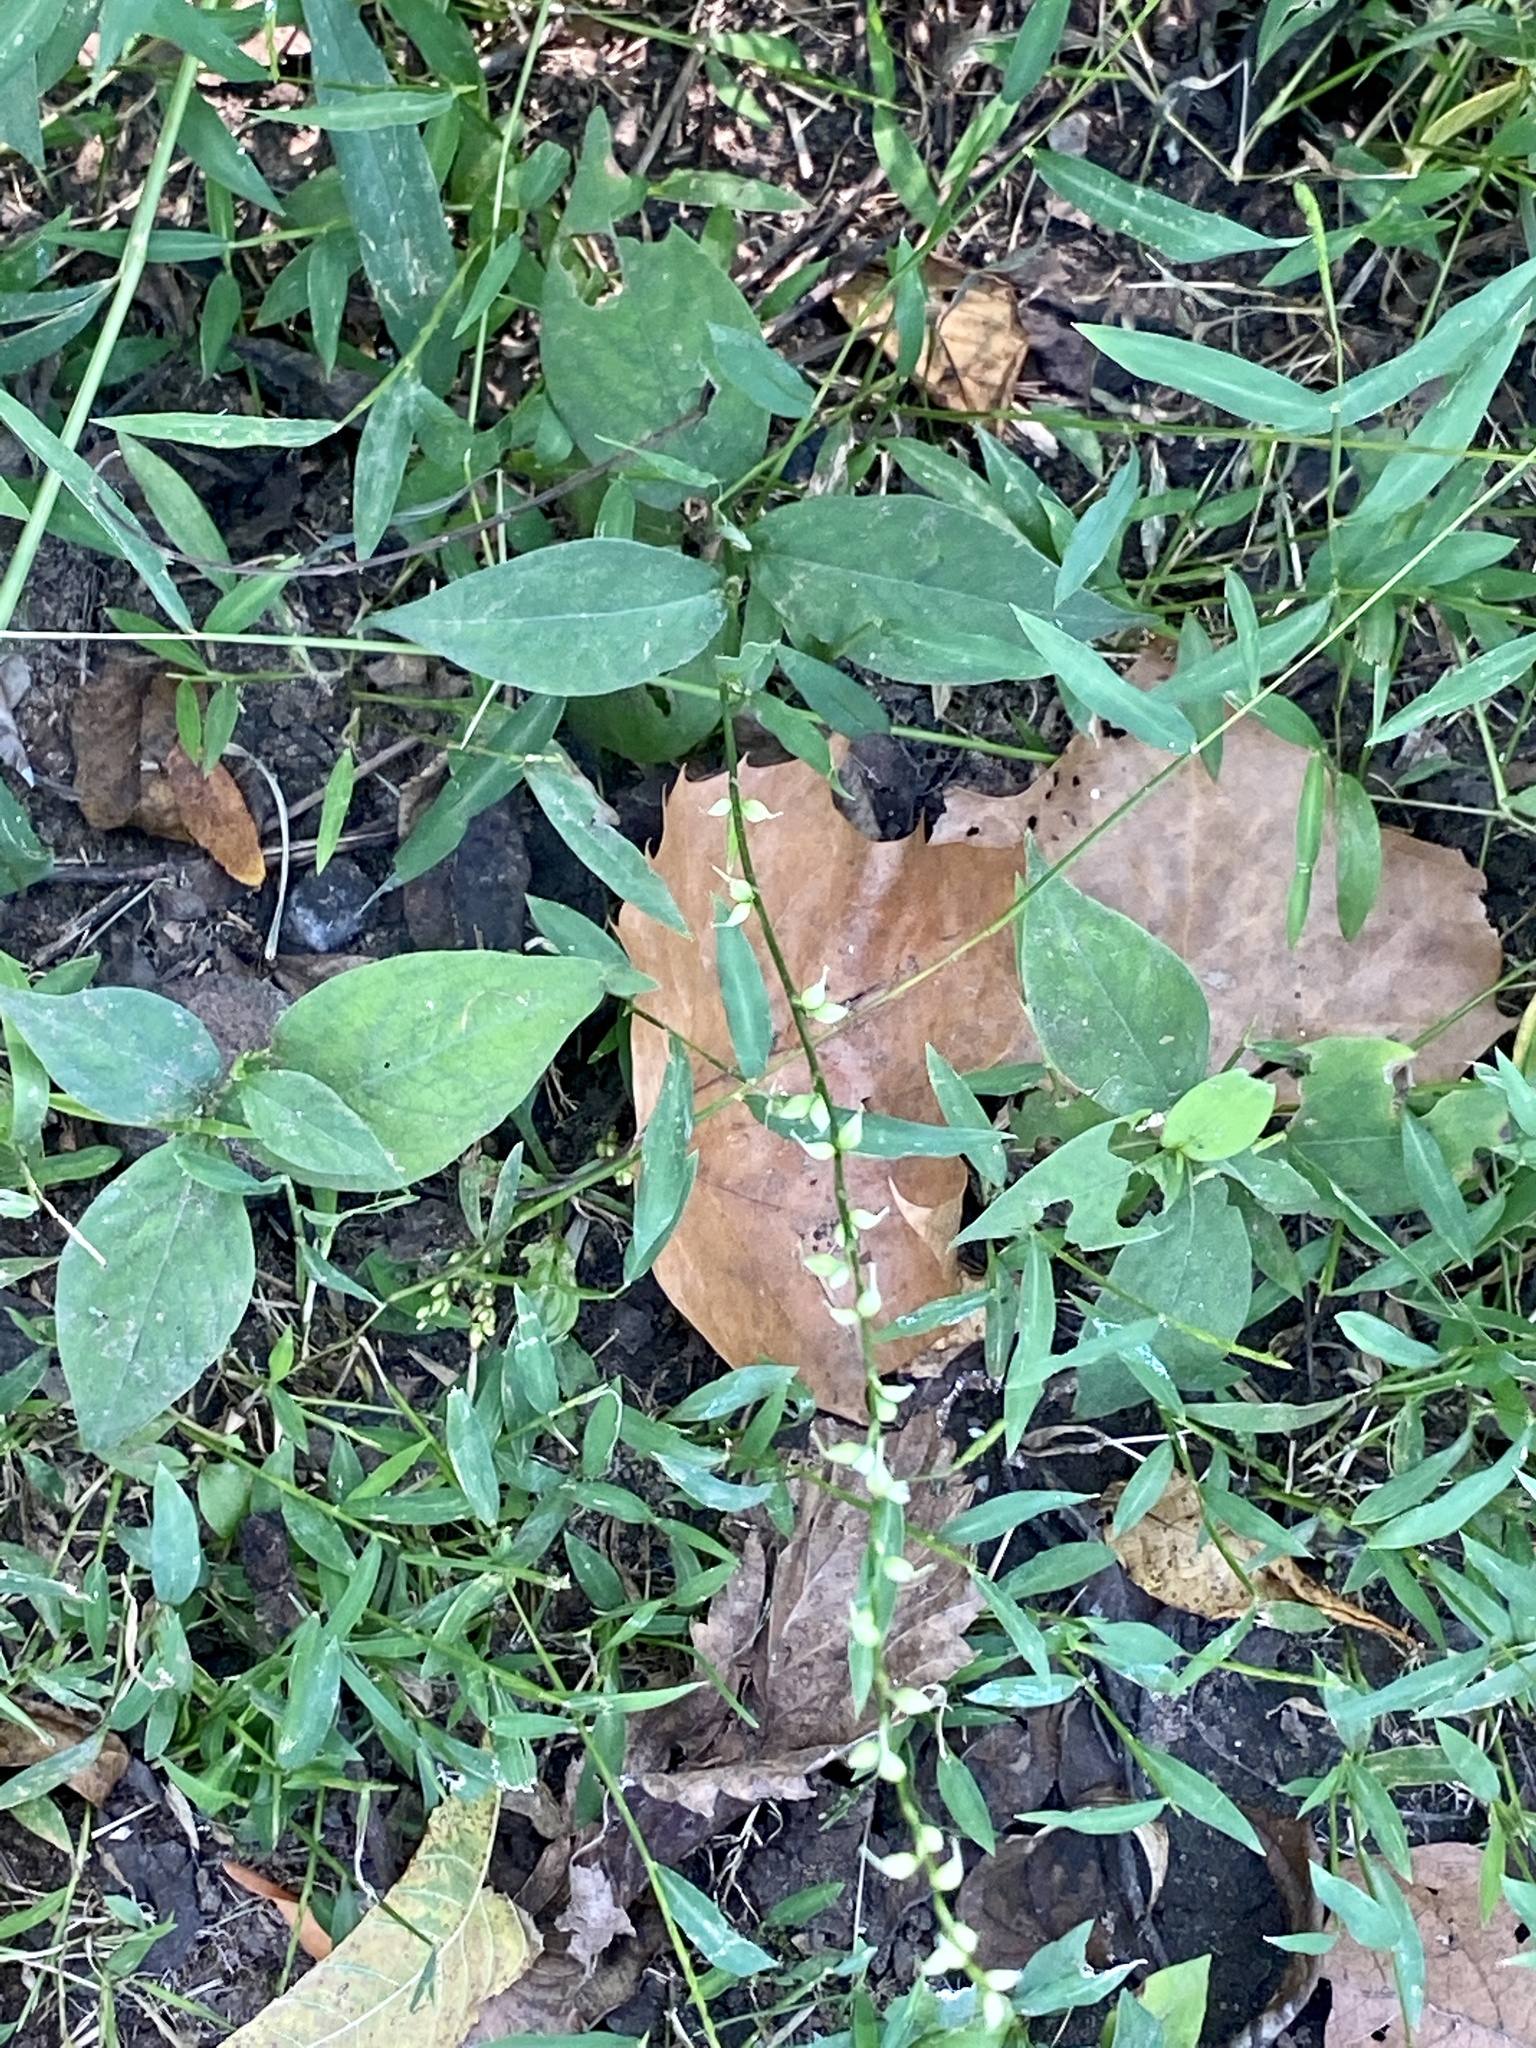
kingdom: Plantae
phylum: Tracheophyta
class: Magnoliopsida
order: Caryophyllales
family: Polygonaceae
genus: Persicaria
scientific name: Persicaria virginiana
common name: Jumpseed
